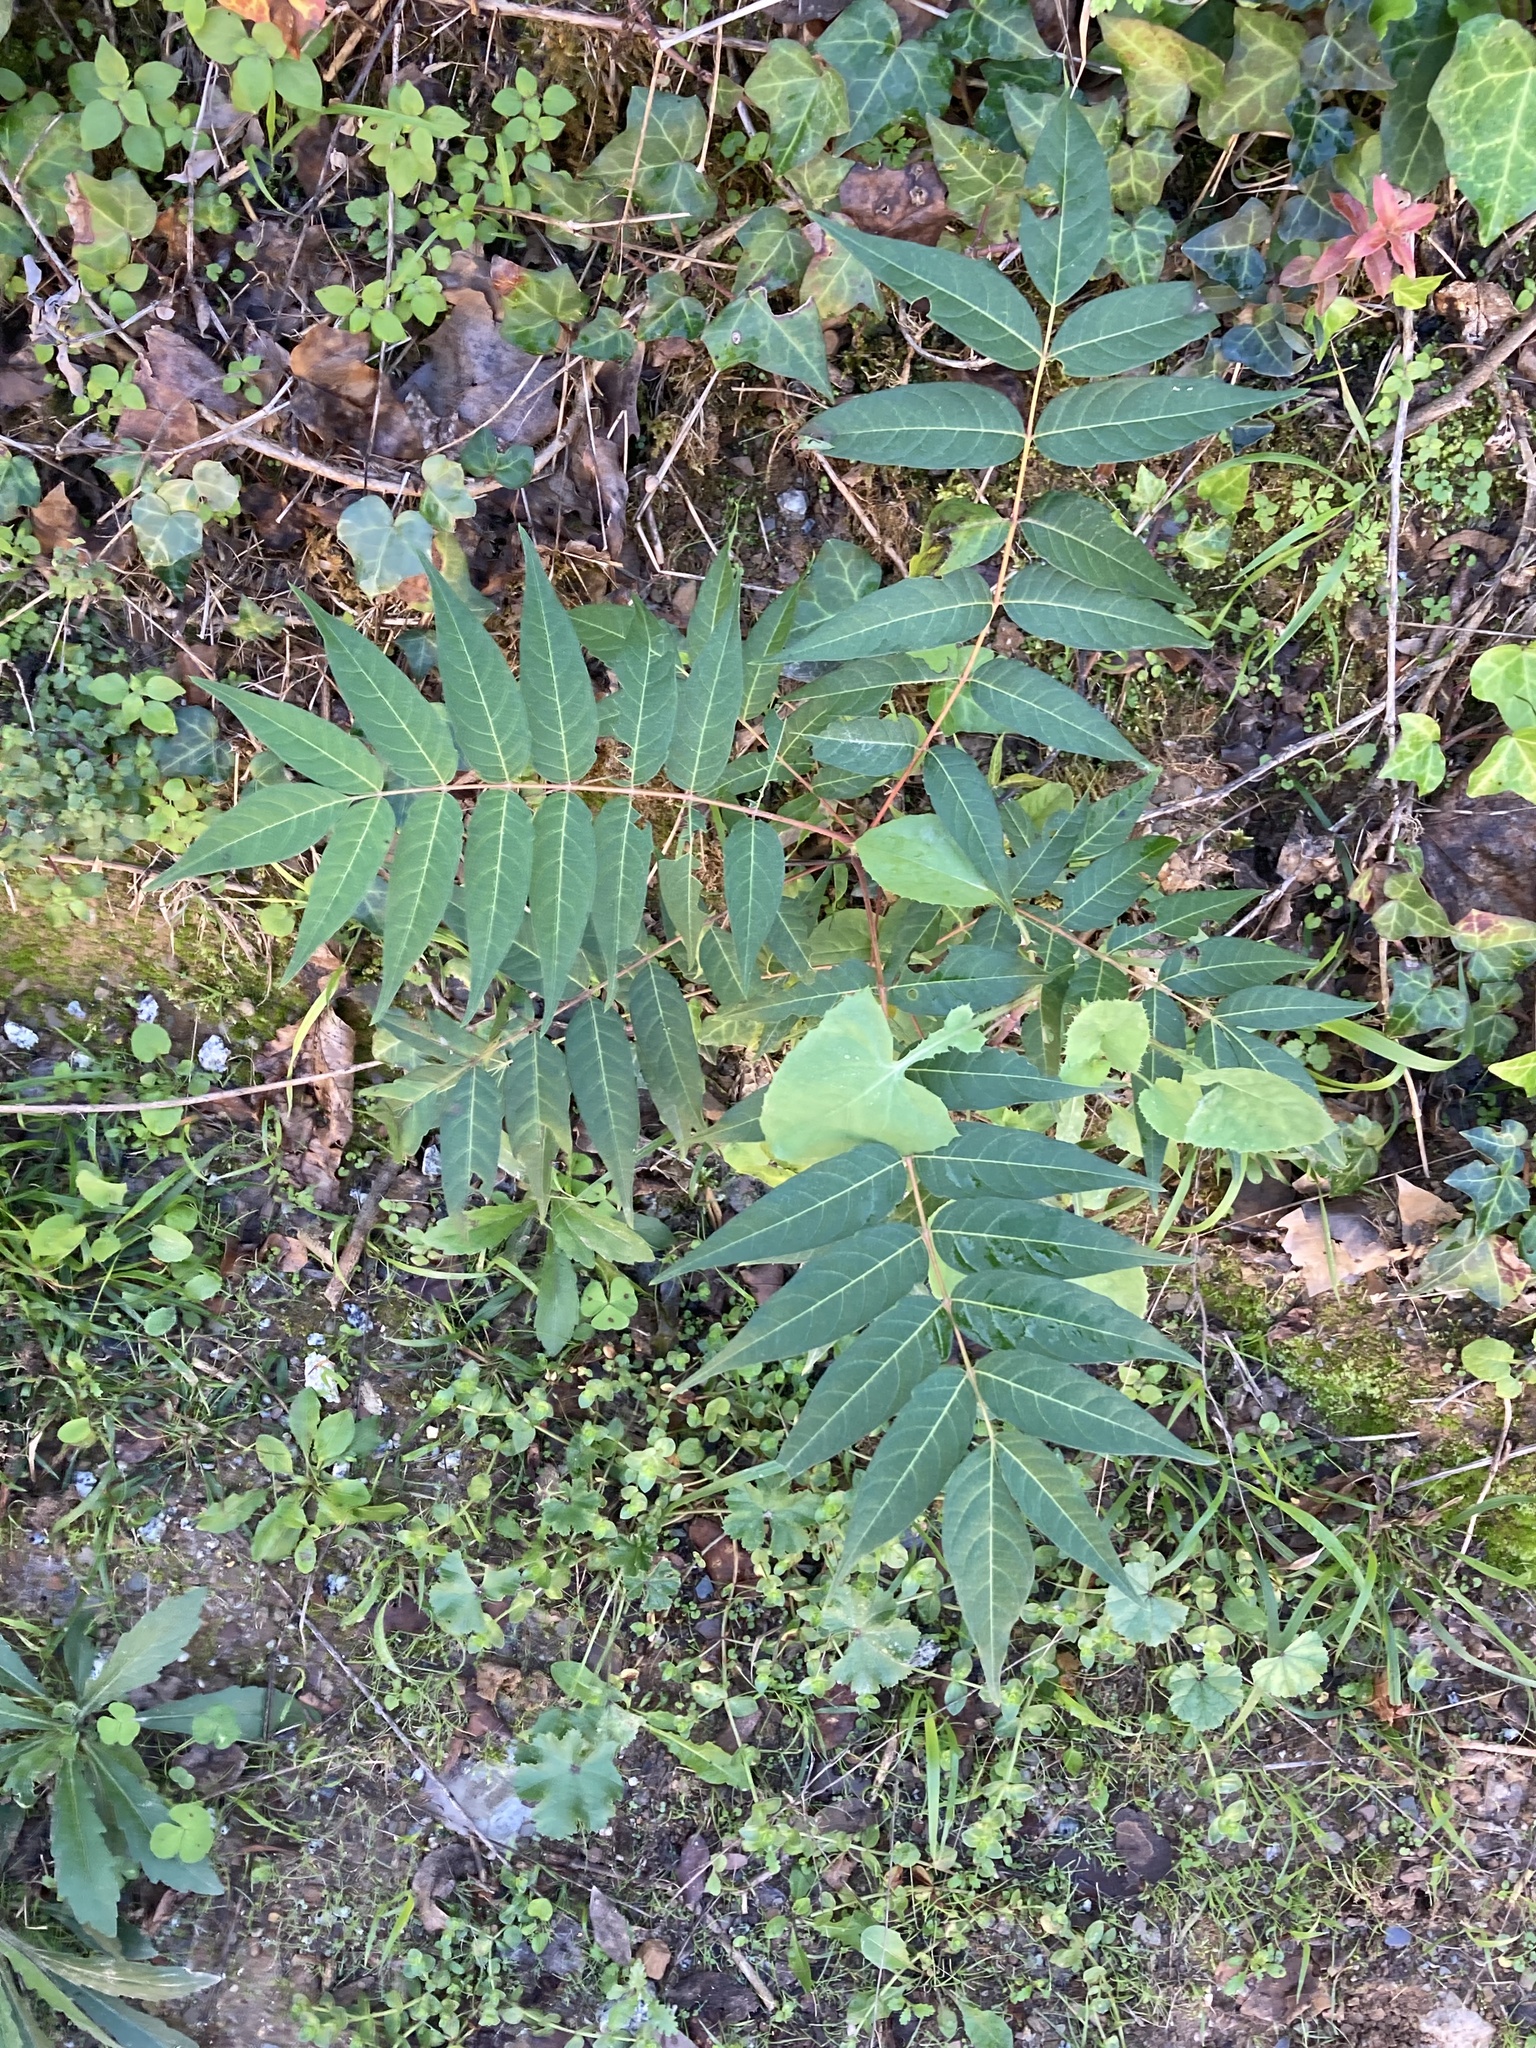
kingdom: Plantae
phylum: Tracheophyta
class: Magnoliopsida
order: Sapindales
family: Simaroubaceae
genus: Ailanthus
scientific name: Ailanthus altissima
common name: Tree-of-heaven
